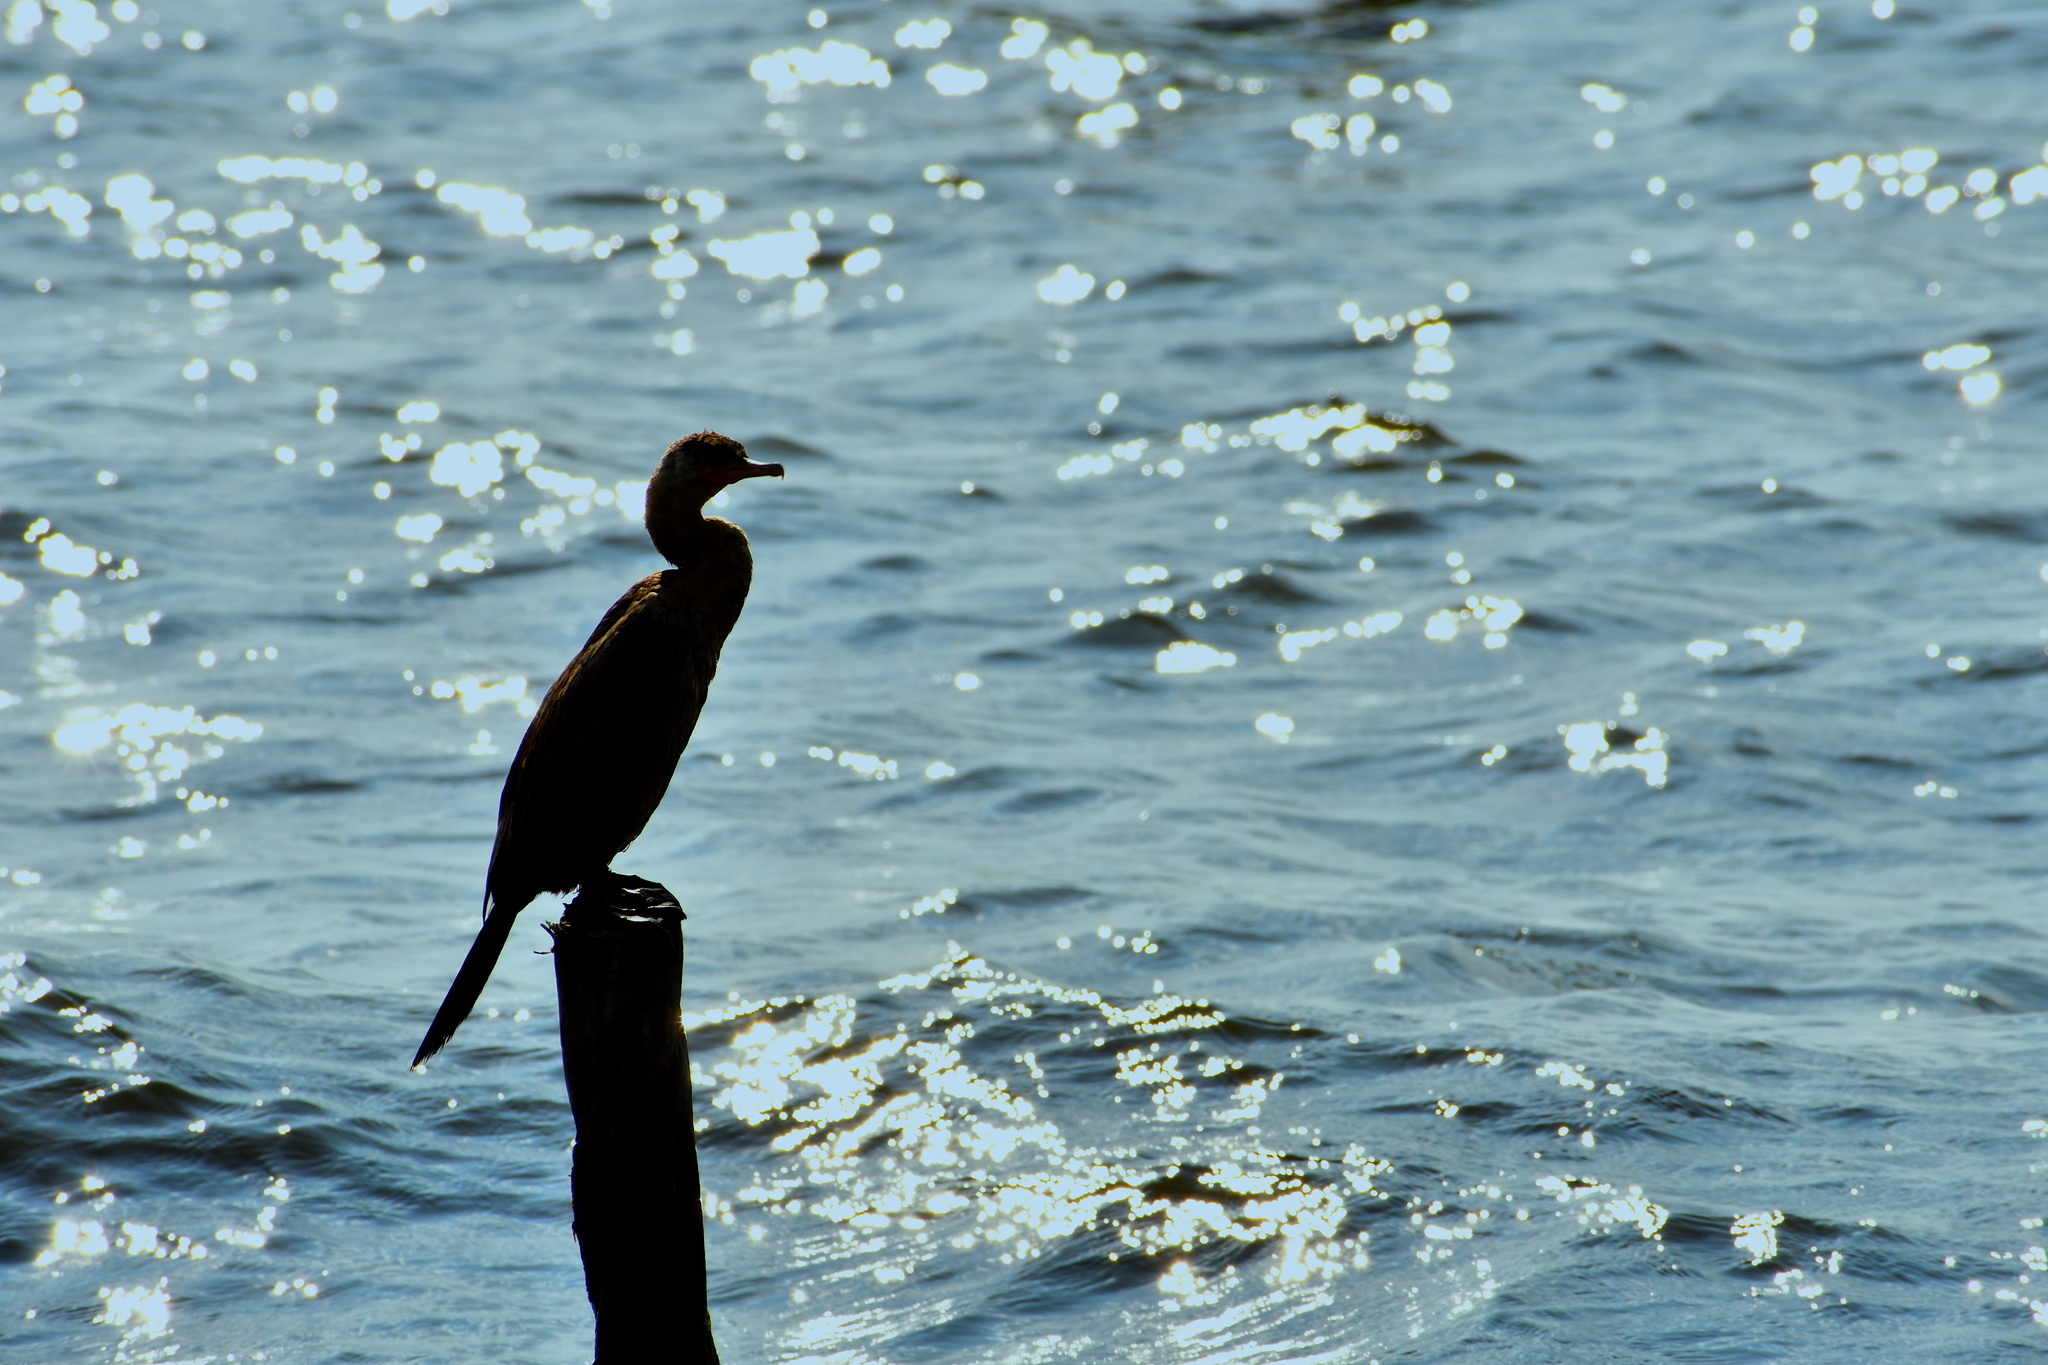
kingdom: Animalia
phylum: Chordata
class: Aves
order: Suliformes
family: Phalacrocoracidae
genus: Phalacrocorax
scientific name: Phalacrocorax brasilianus
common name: Neotropic cormorant
